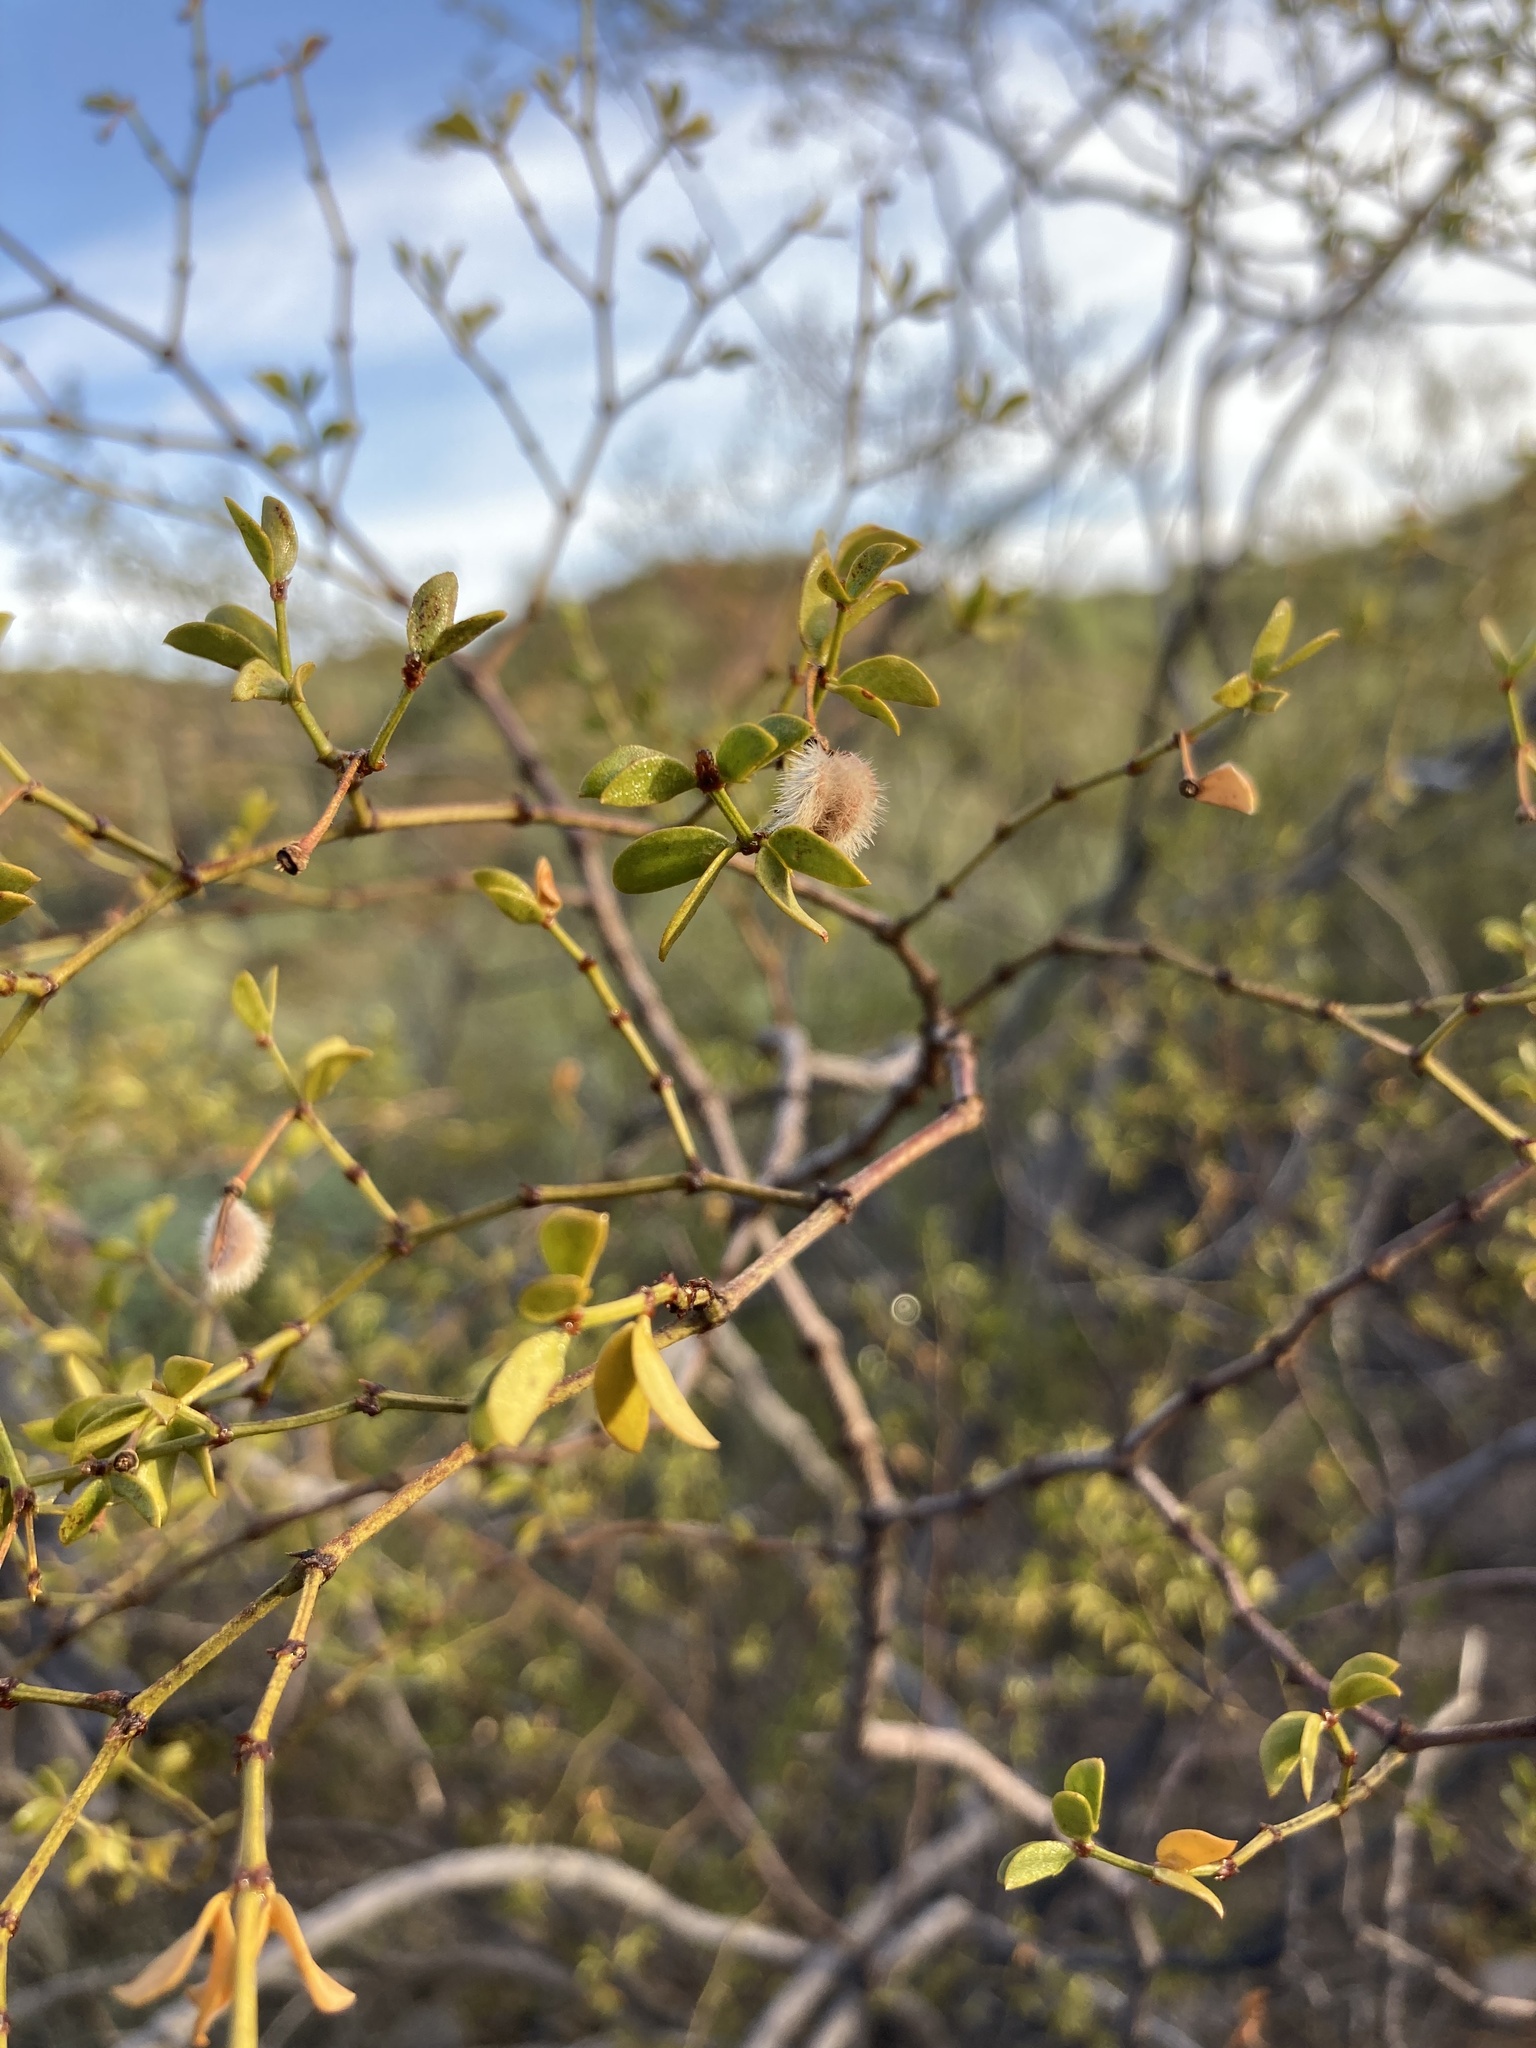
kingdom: Plantae
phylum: Tracheophyta
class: Magnoliopsida
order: Zygophyllales
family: Zygophyllaceae
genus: Larrea
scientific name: Larrea tridentata
